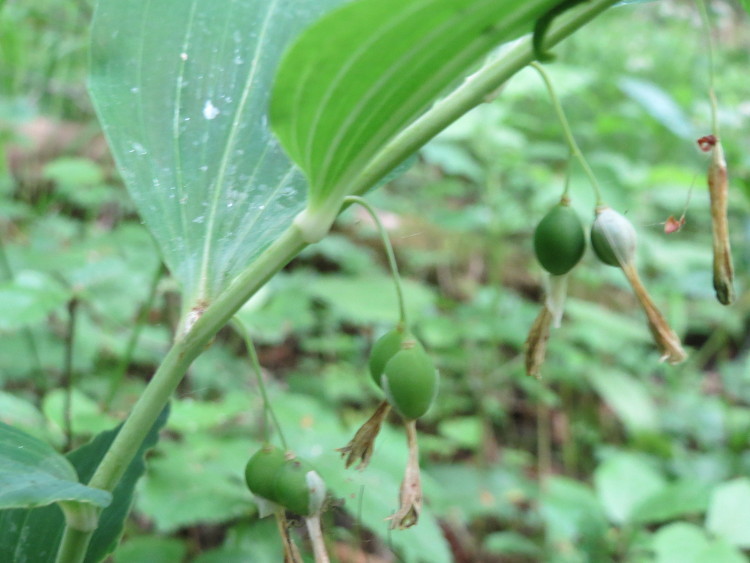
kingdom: Plantae
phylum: Tracheophyta
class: Liliopsida
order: Asparagales
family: Asparagaceae
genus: Polygonatum
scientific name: Polygonatum multiflorum
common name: Solomon's-seal
